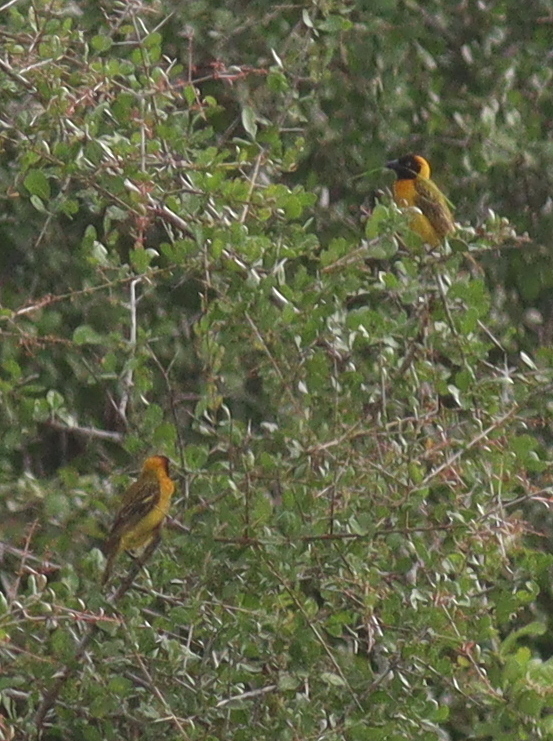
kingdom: Animalia
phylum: Chordata
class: Aves
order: Passeriformes
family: Ploceidae
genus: Ploceus
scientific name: Ploceus intermedius
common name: Lesser masked weaver
